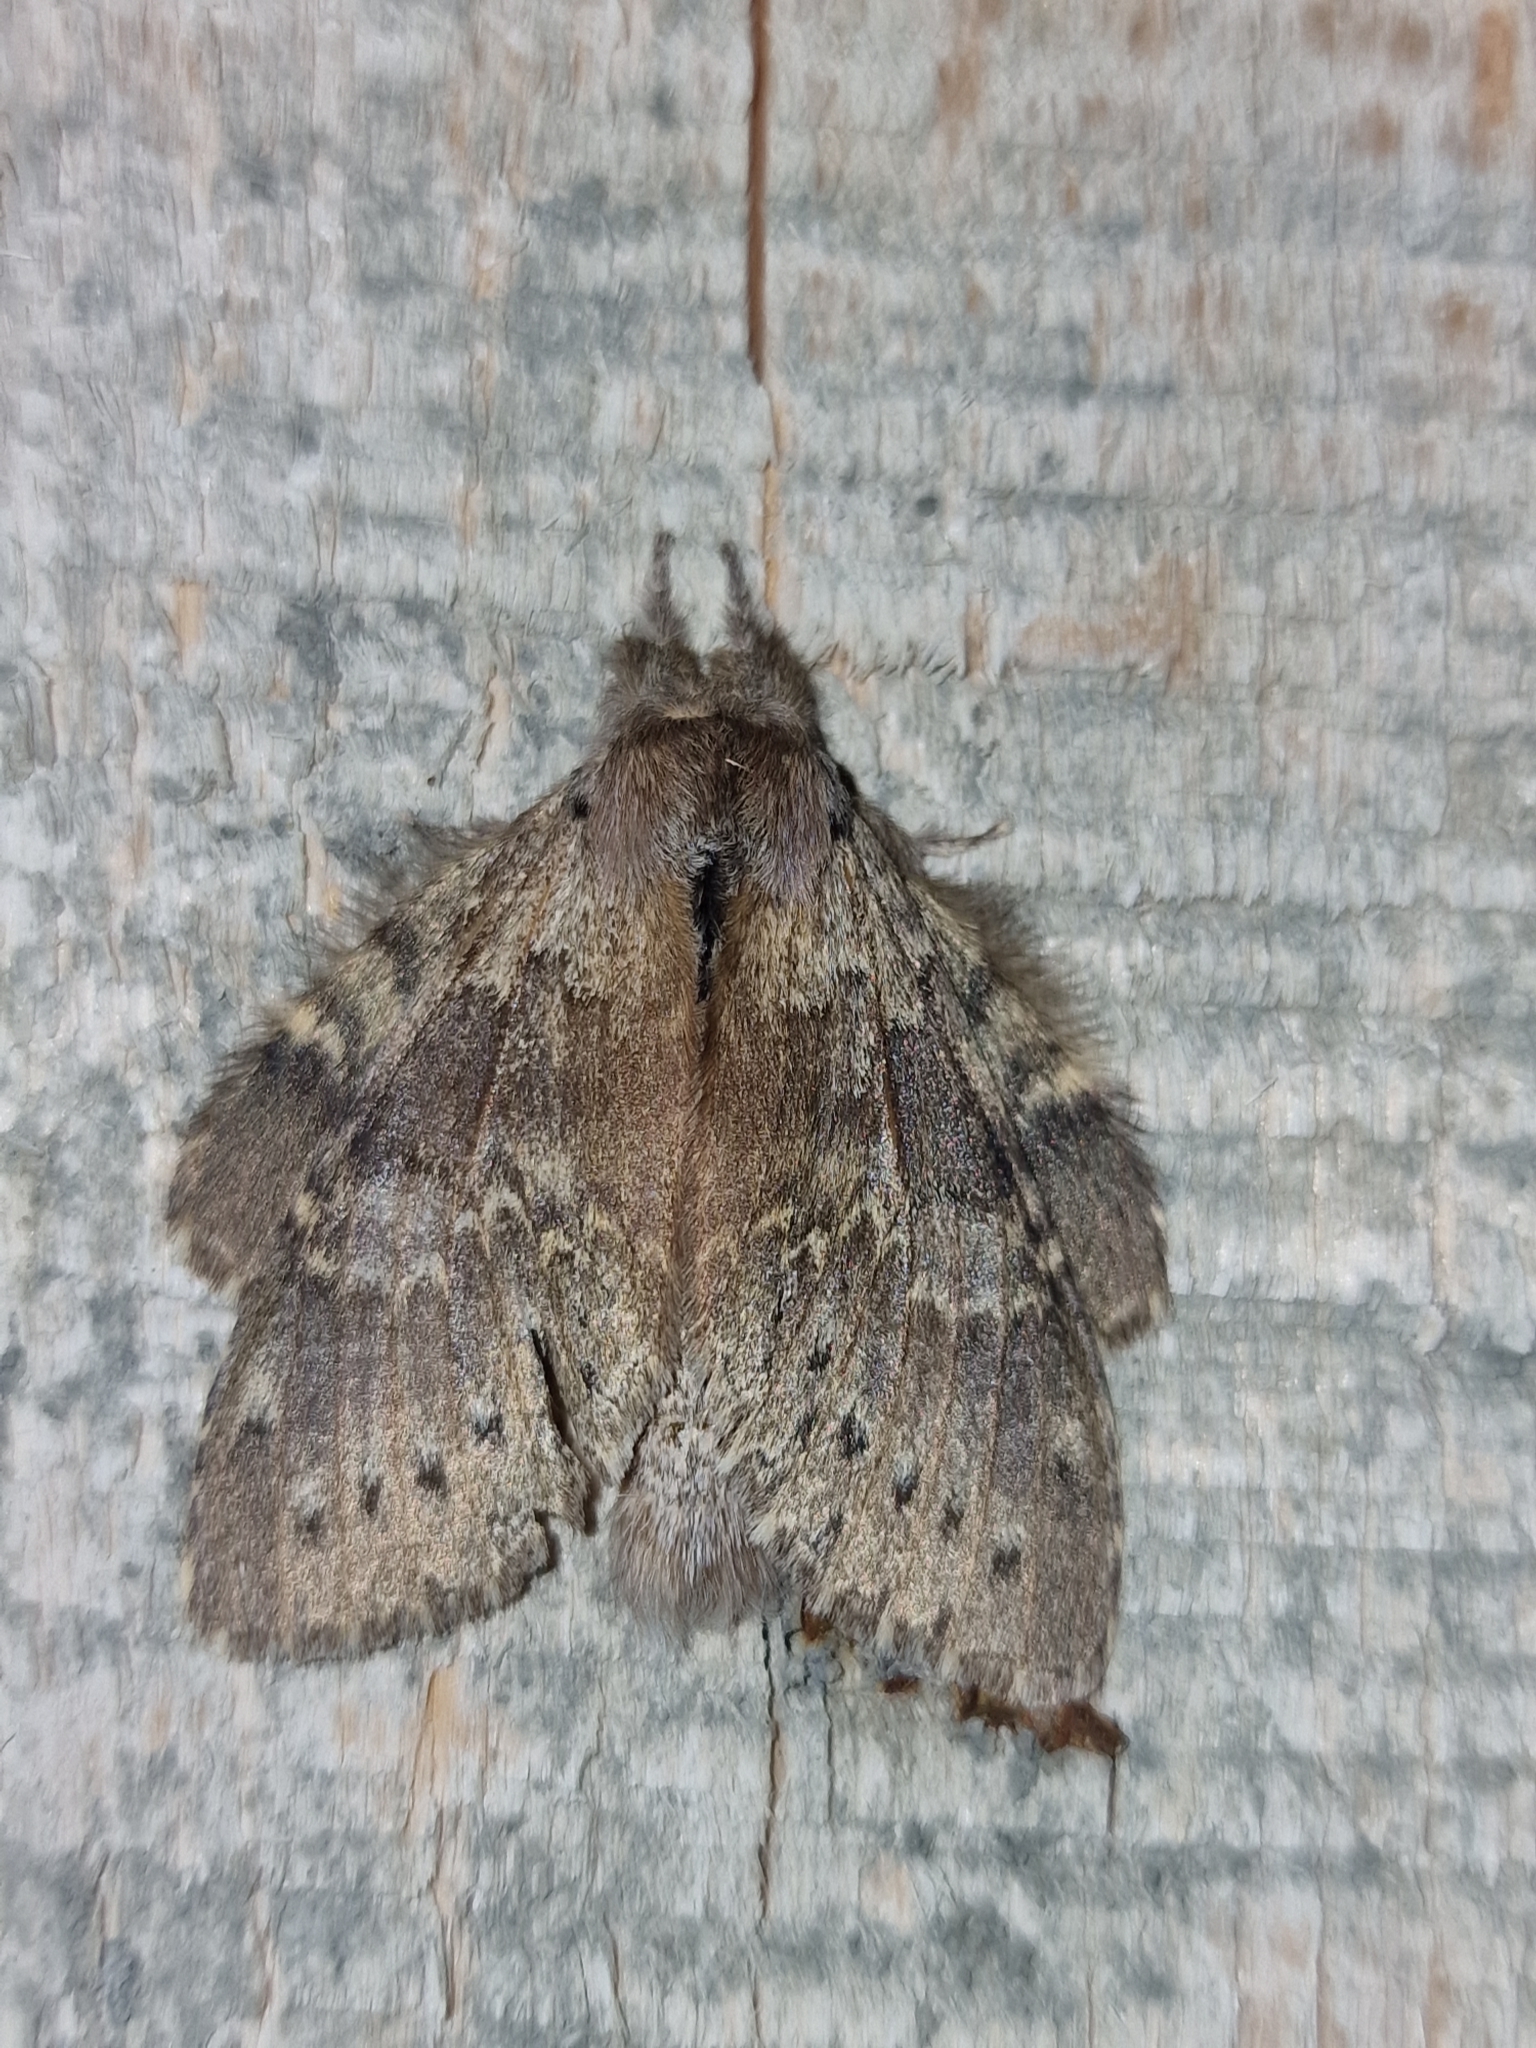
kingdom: Animalia
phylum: Arthropoda
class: Insecta
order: Lepidoptera
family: Notodontidae
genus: Stauropus
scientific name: Stauropus fagi
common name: Lobster moth
